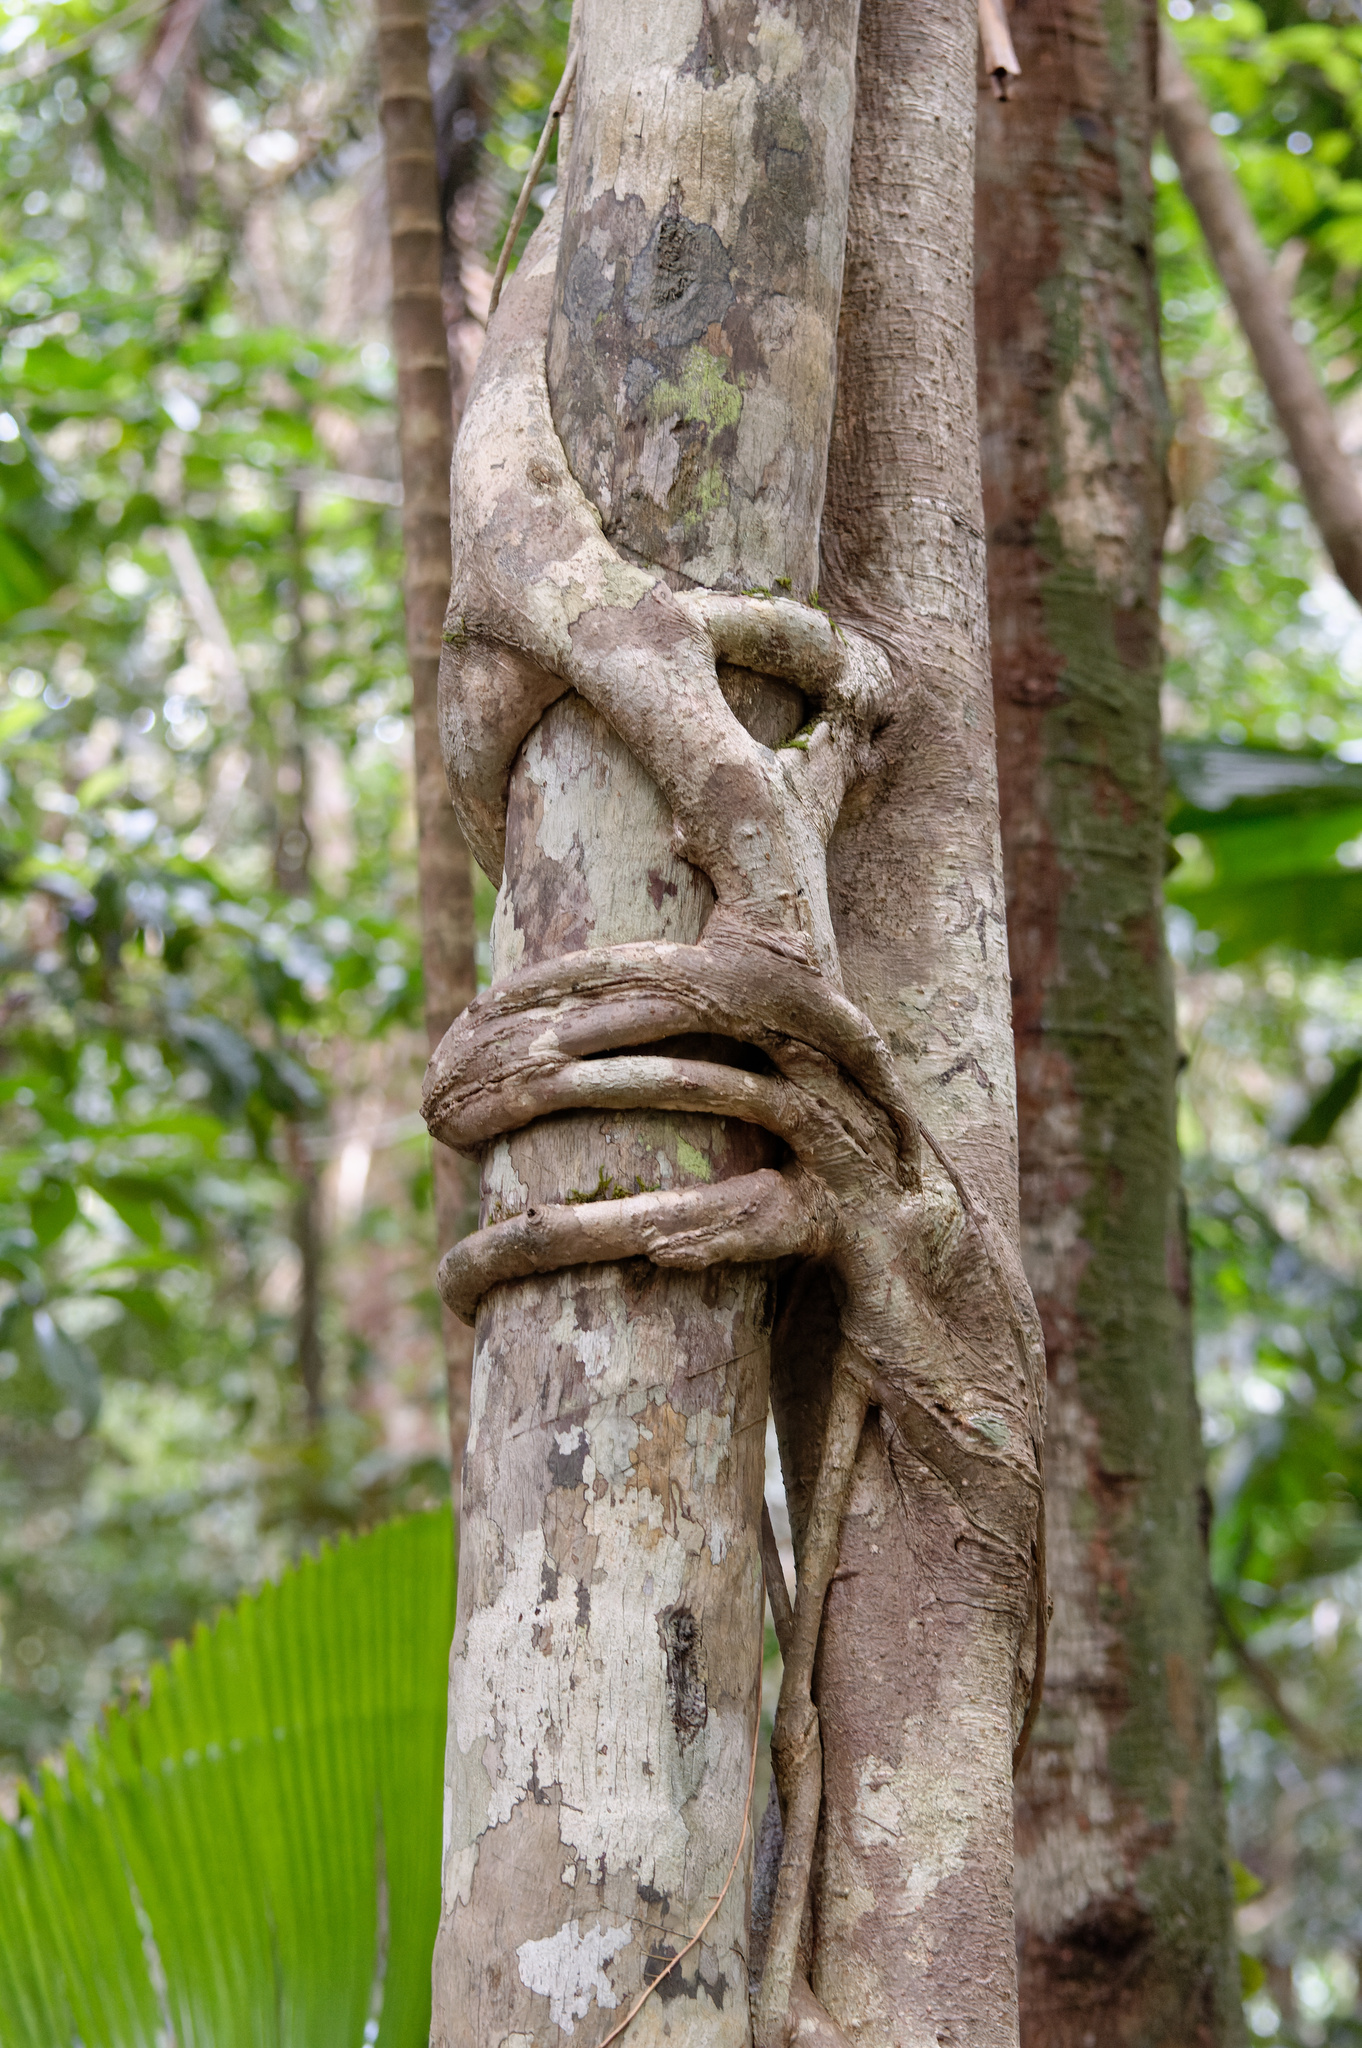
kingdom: Plantae
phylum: Tracheophyta
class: Magnoliopsida
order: Rosales
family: Moraceae
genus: Ficus
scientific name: Ficus
